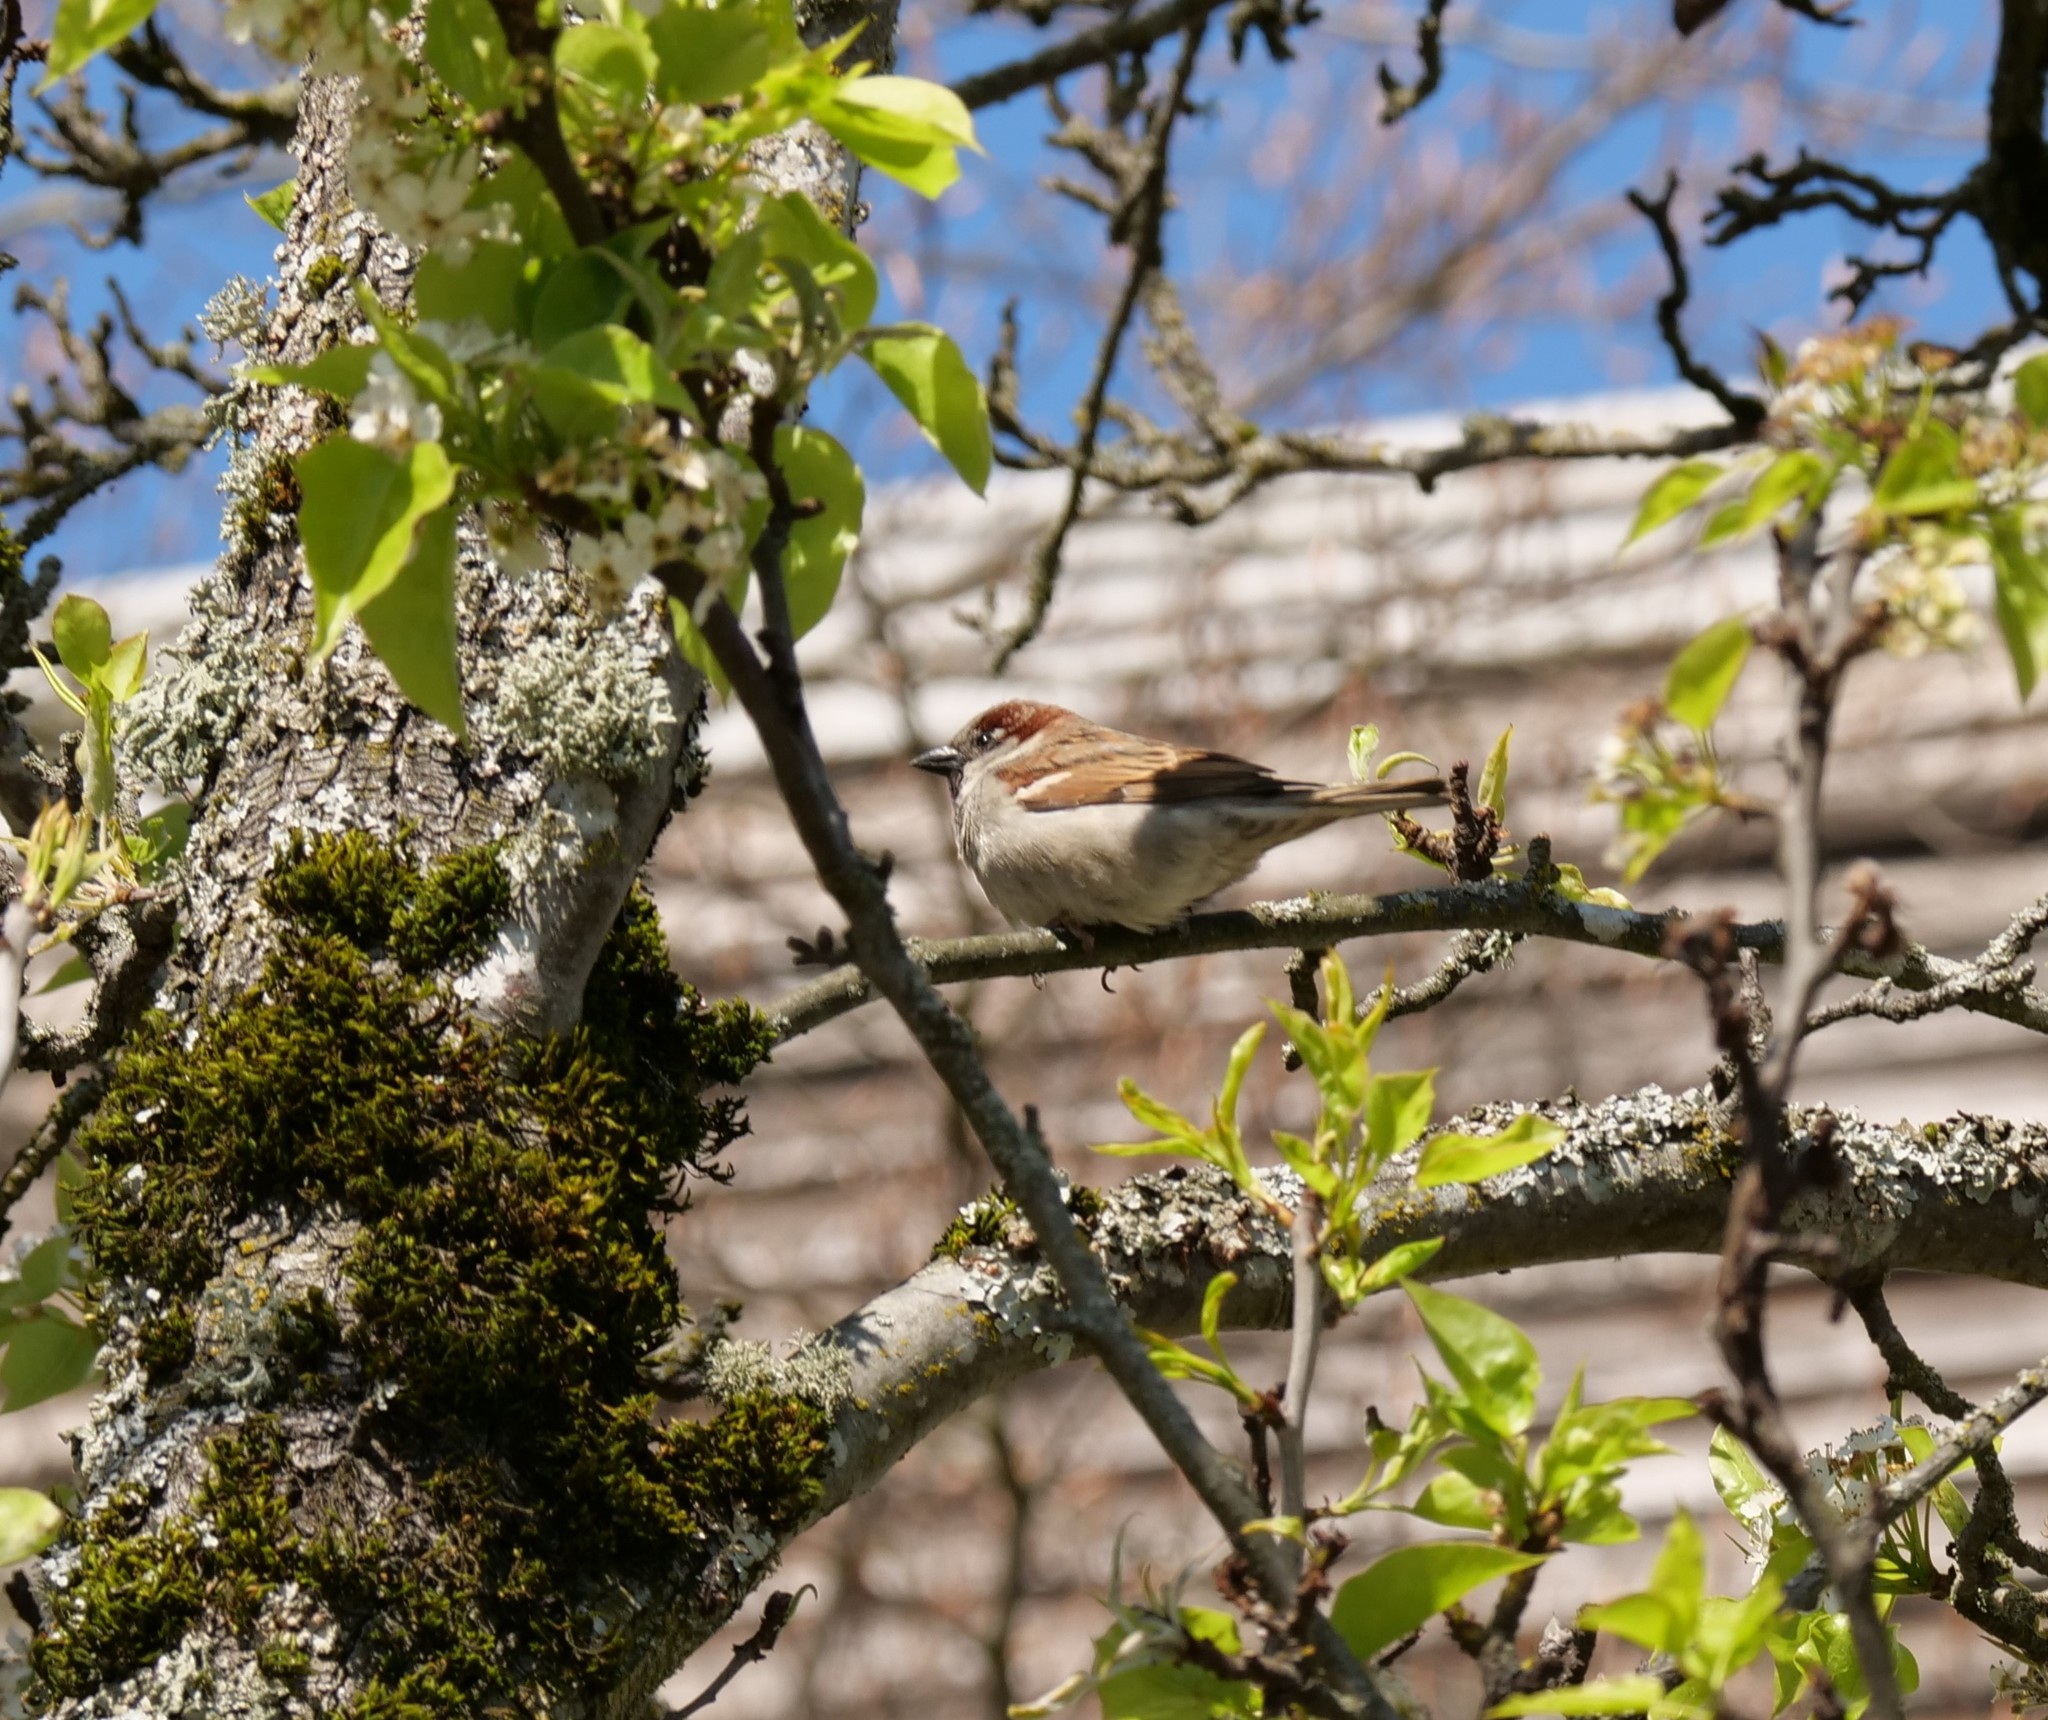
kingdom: Animalia
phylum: Chordata
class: Aves
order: Passeriformes
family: Passeridae
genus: Passer
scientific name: Passer domesticus
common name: House sparrow
